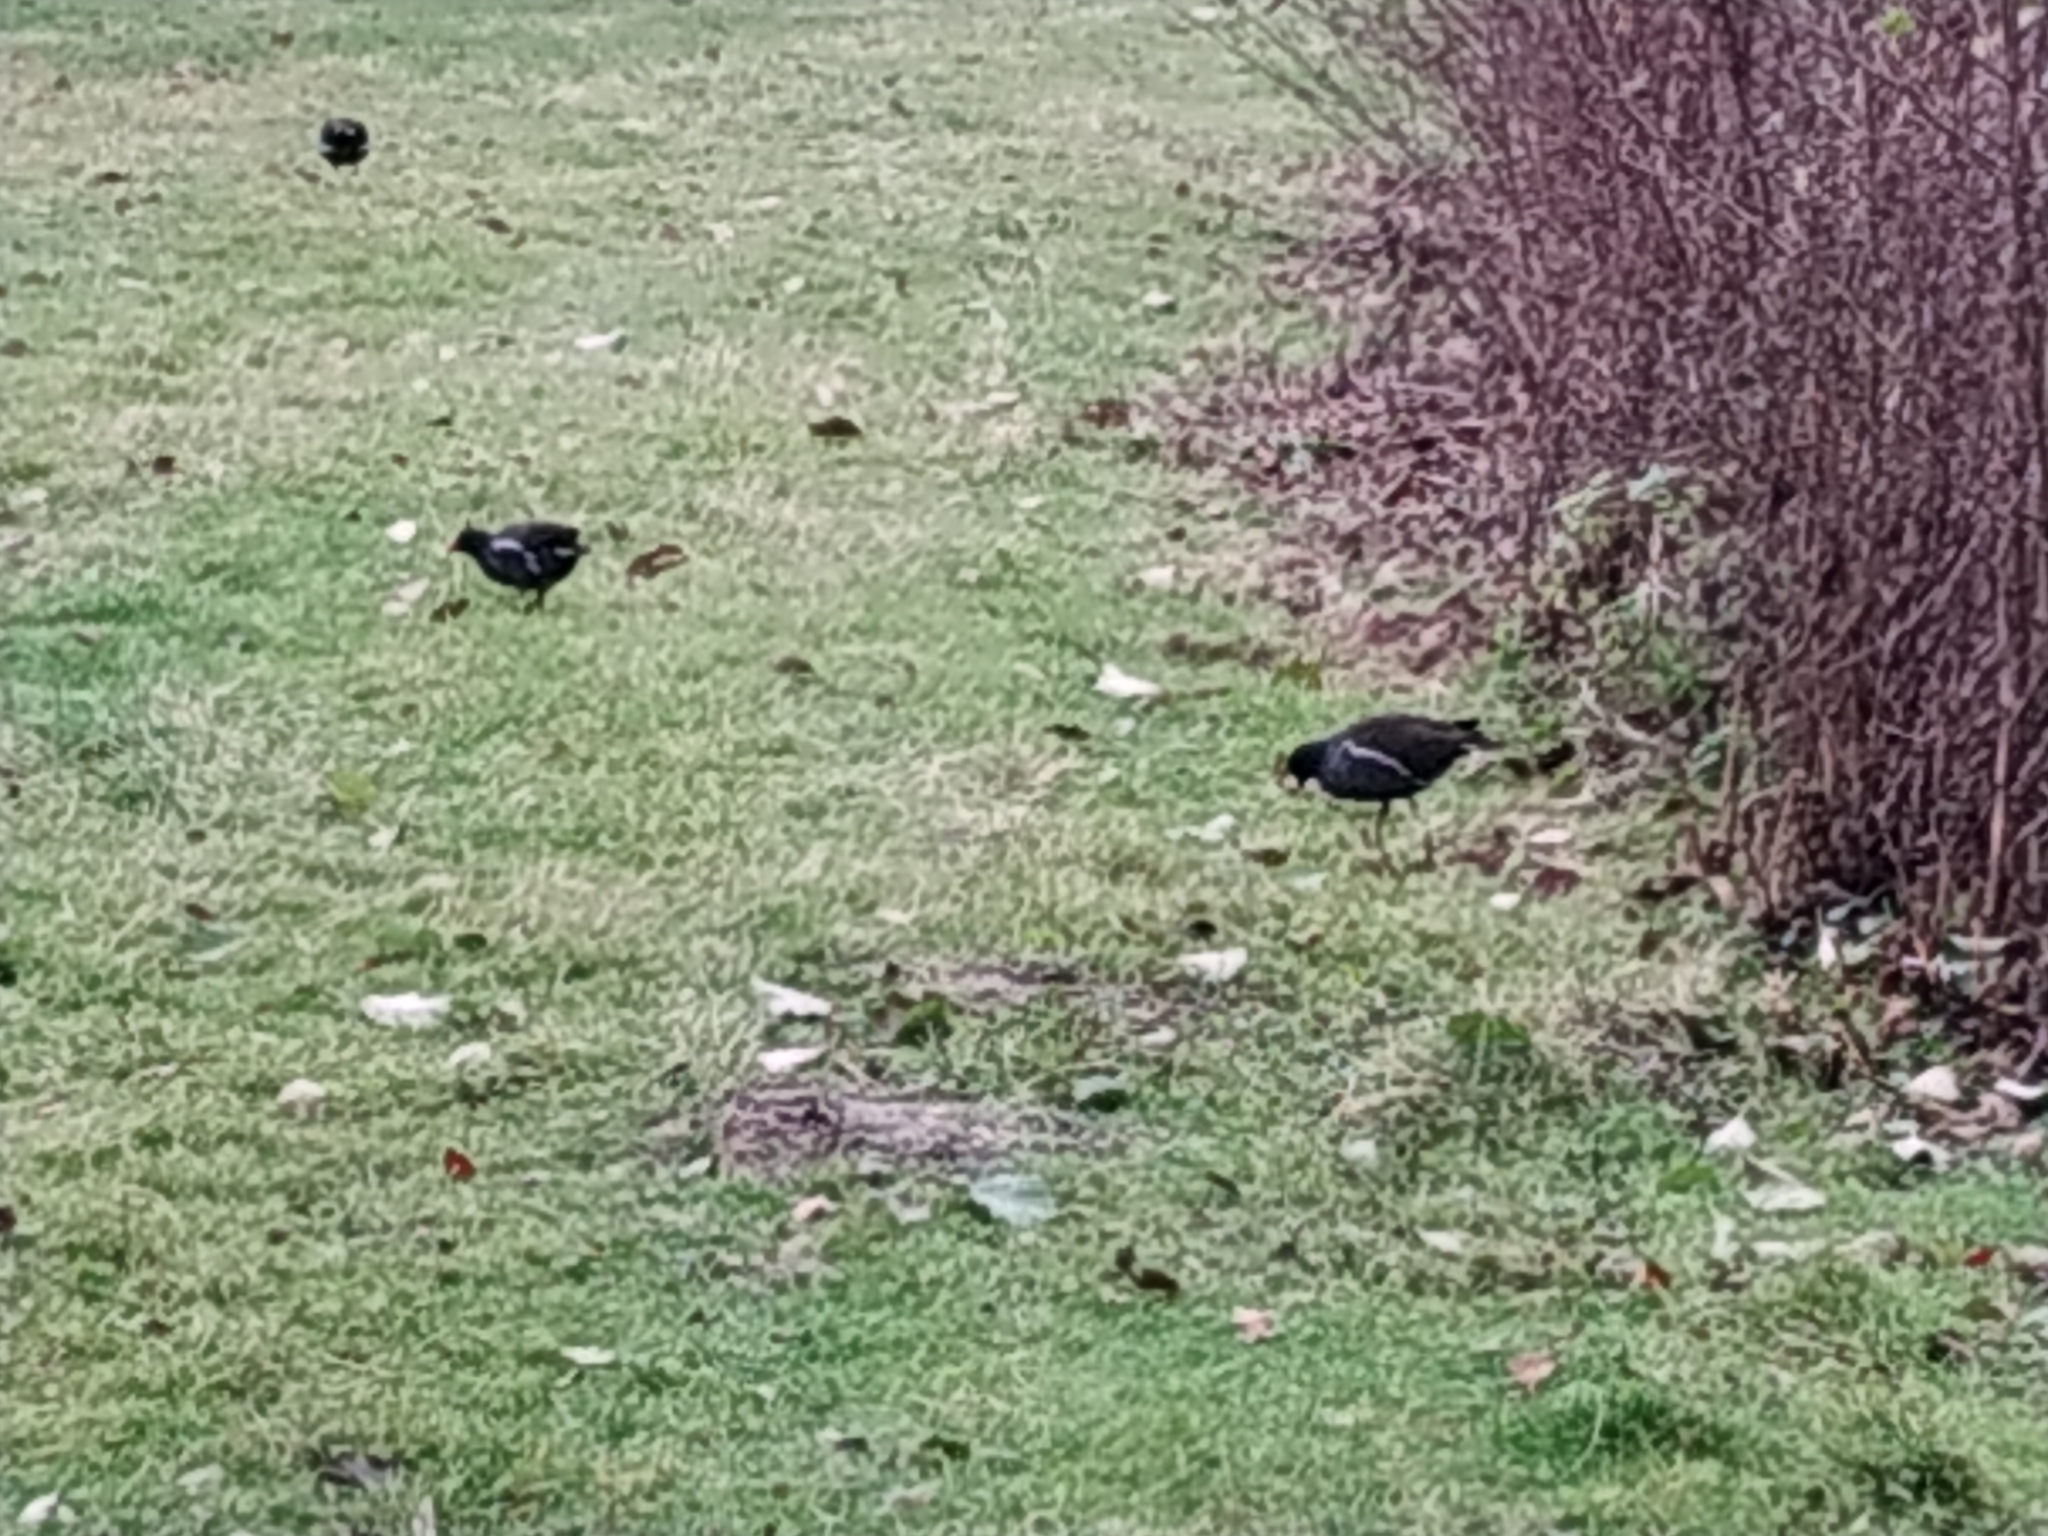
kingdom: Animalia
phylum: Chordata
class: Aves
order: Gruiformes
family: Rallidae
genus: Gallinula
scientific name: Gallinula chloropus
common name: Common moorhen
